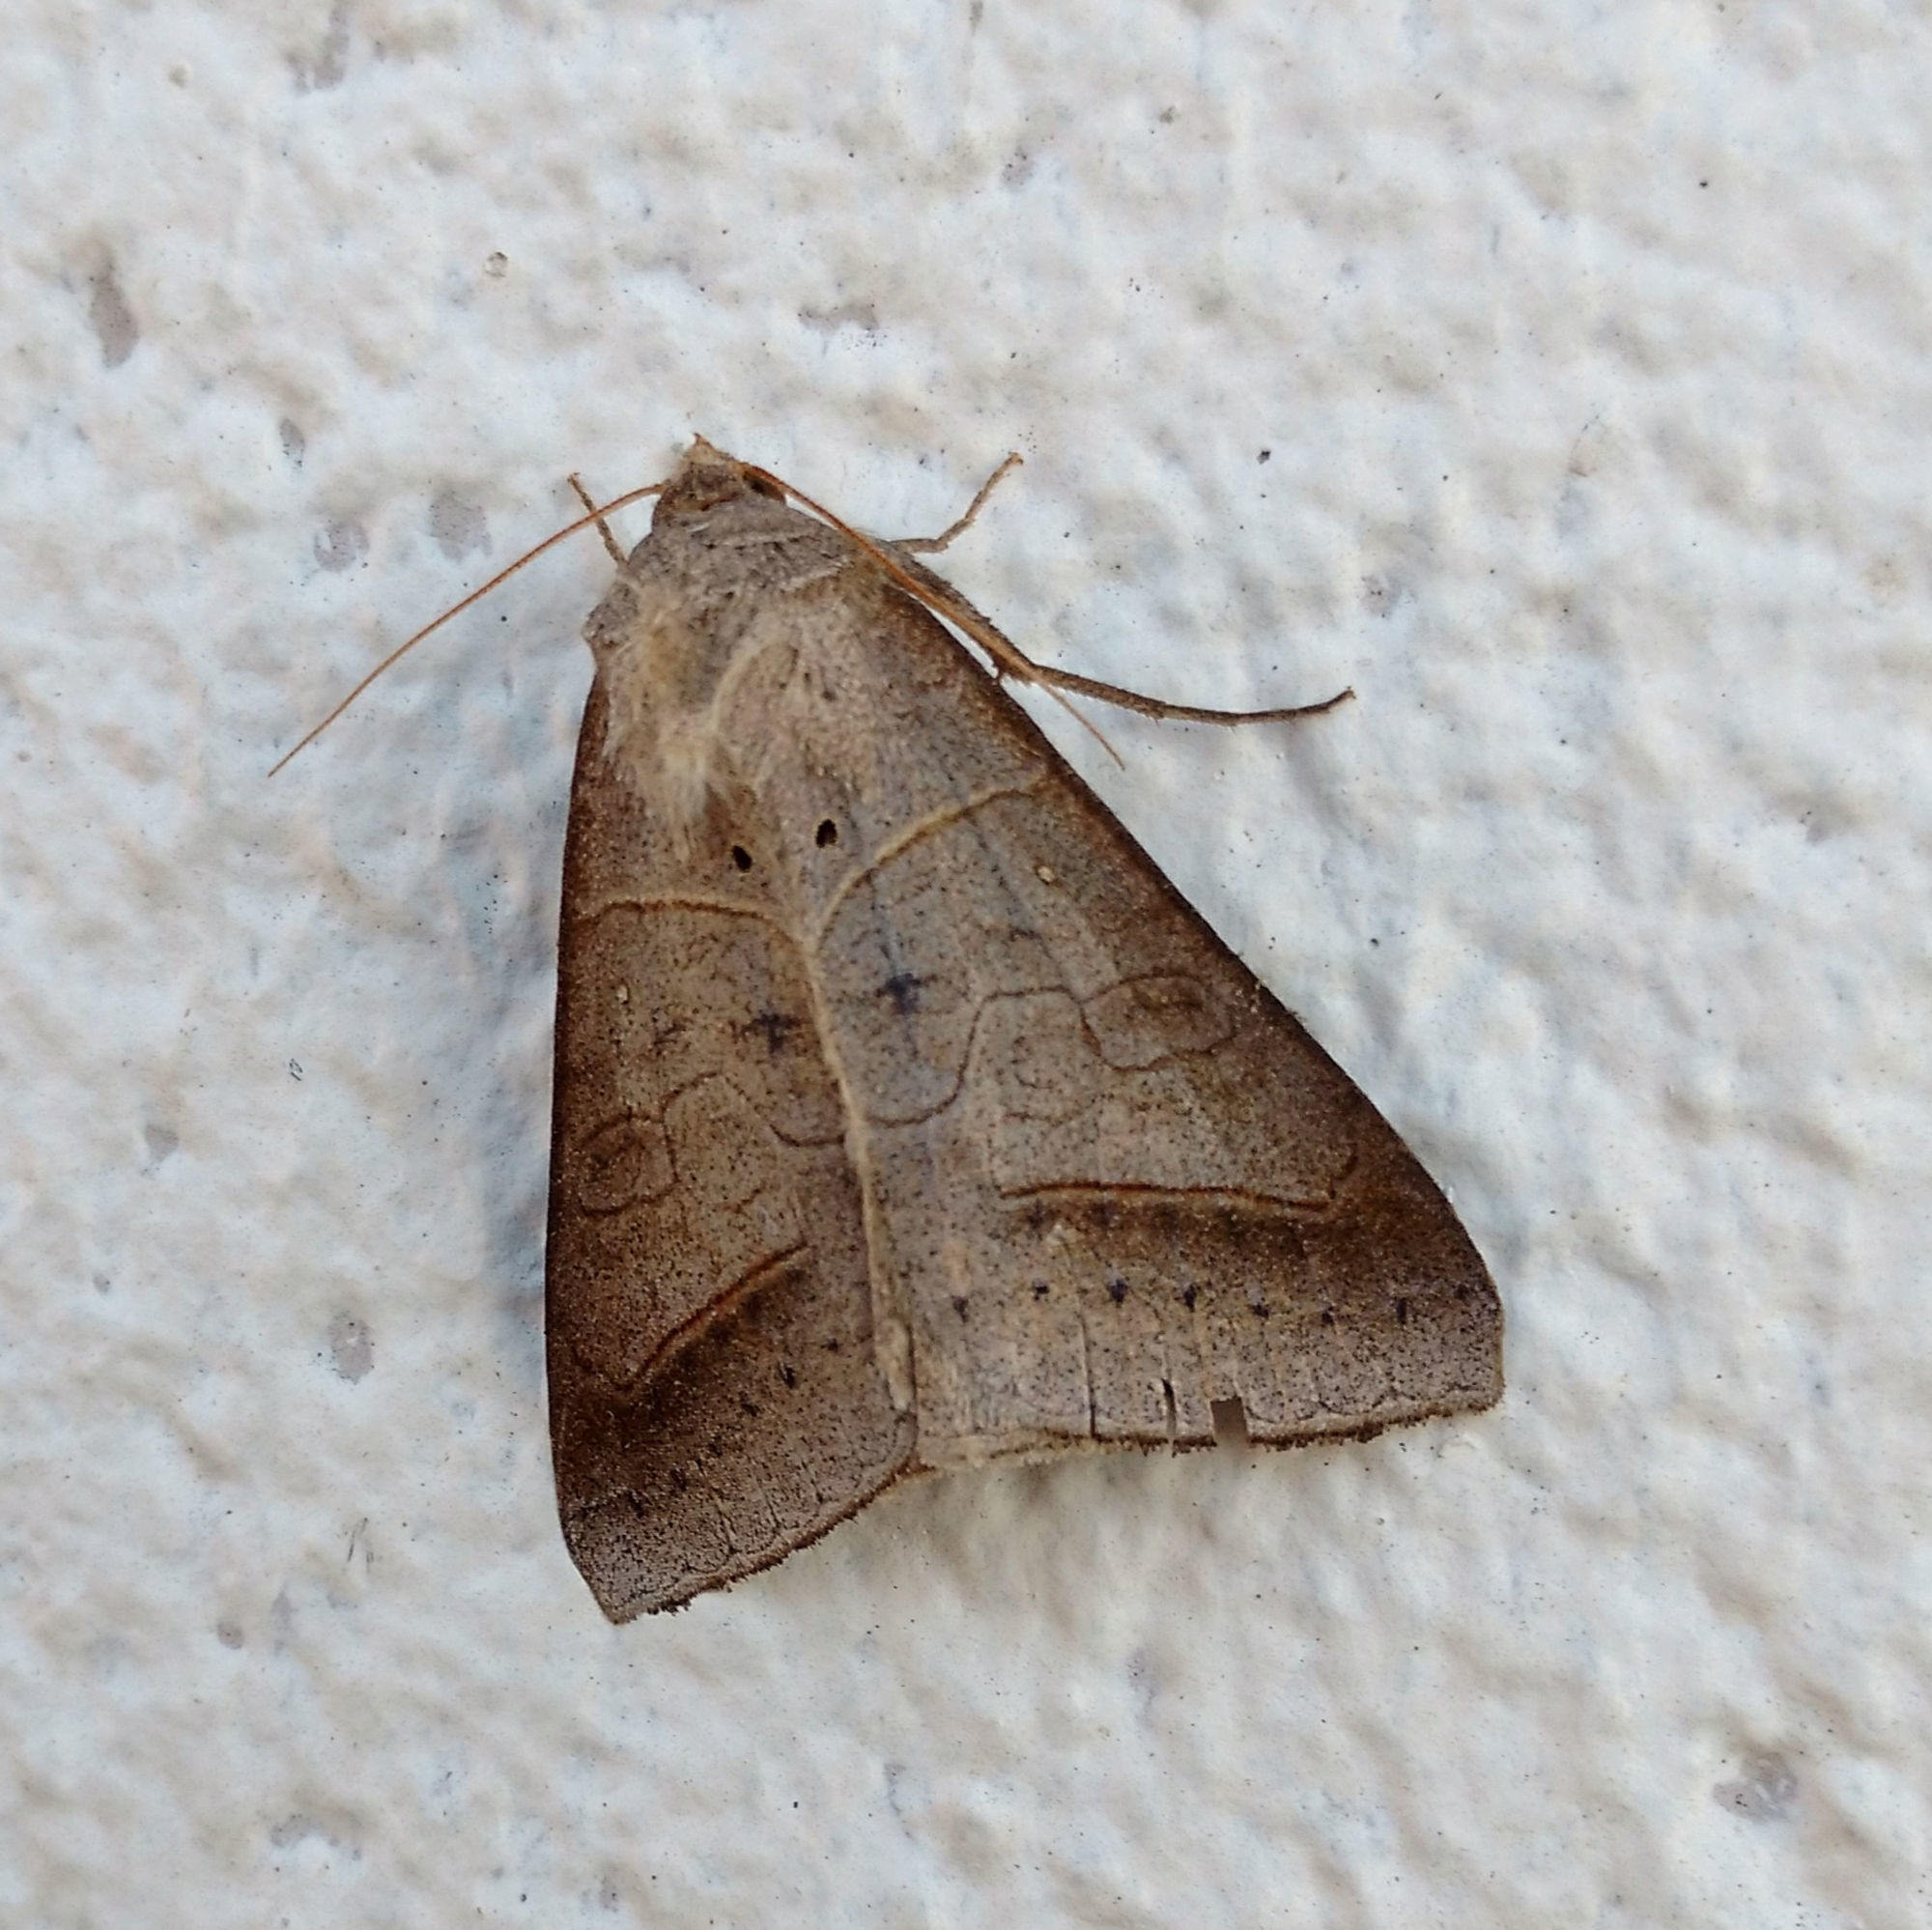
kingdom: Animalia
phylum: Arthropoda
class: Insecta
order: Lepidoptera
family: Erebidae
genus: Mocis
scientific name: Mocis marcida
